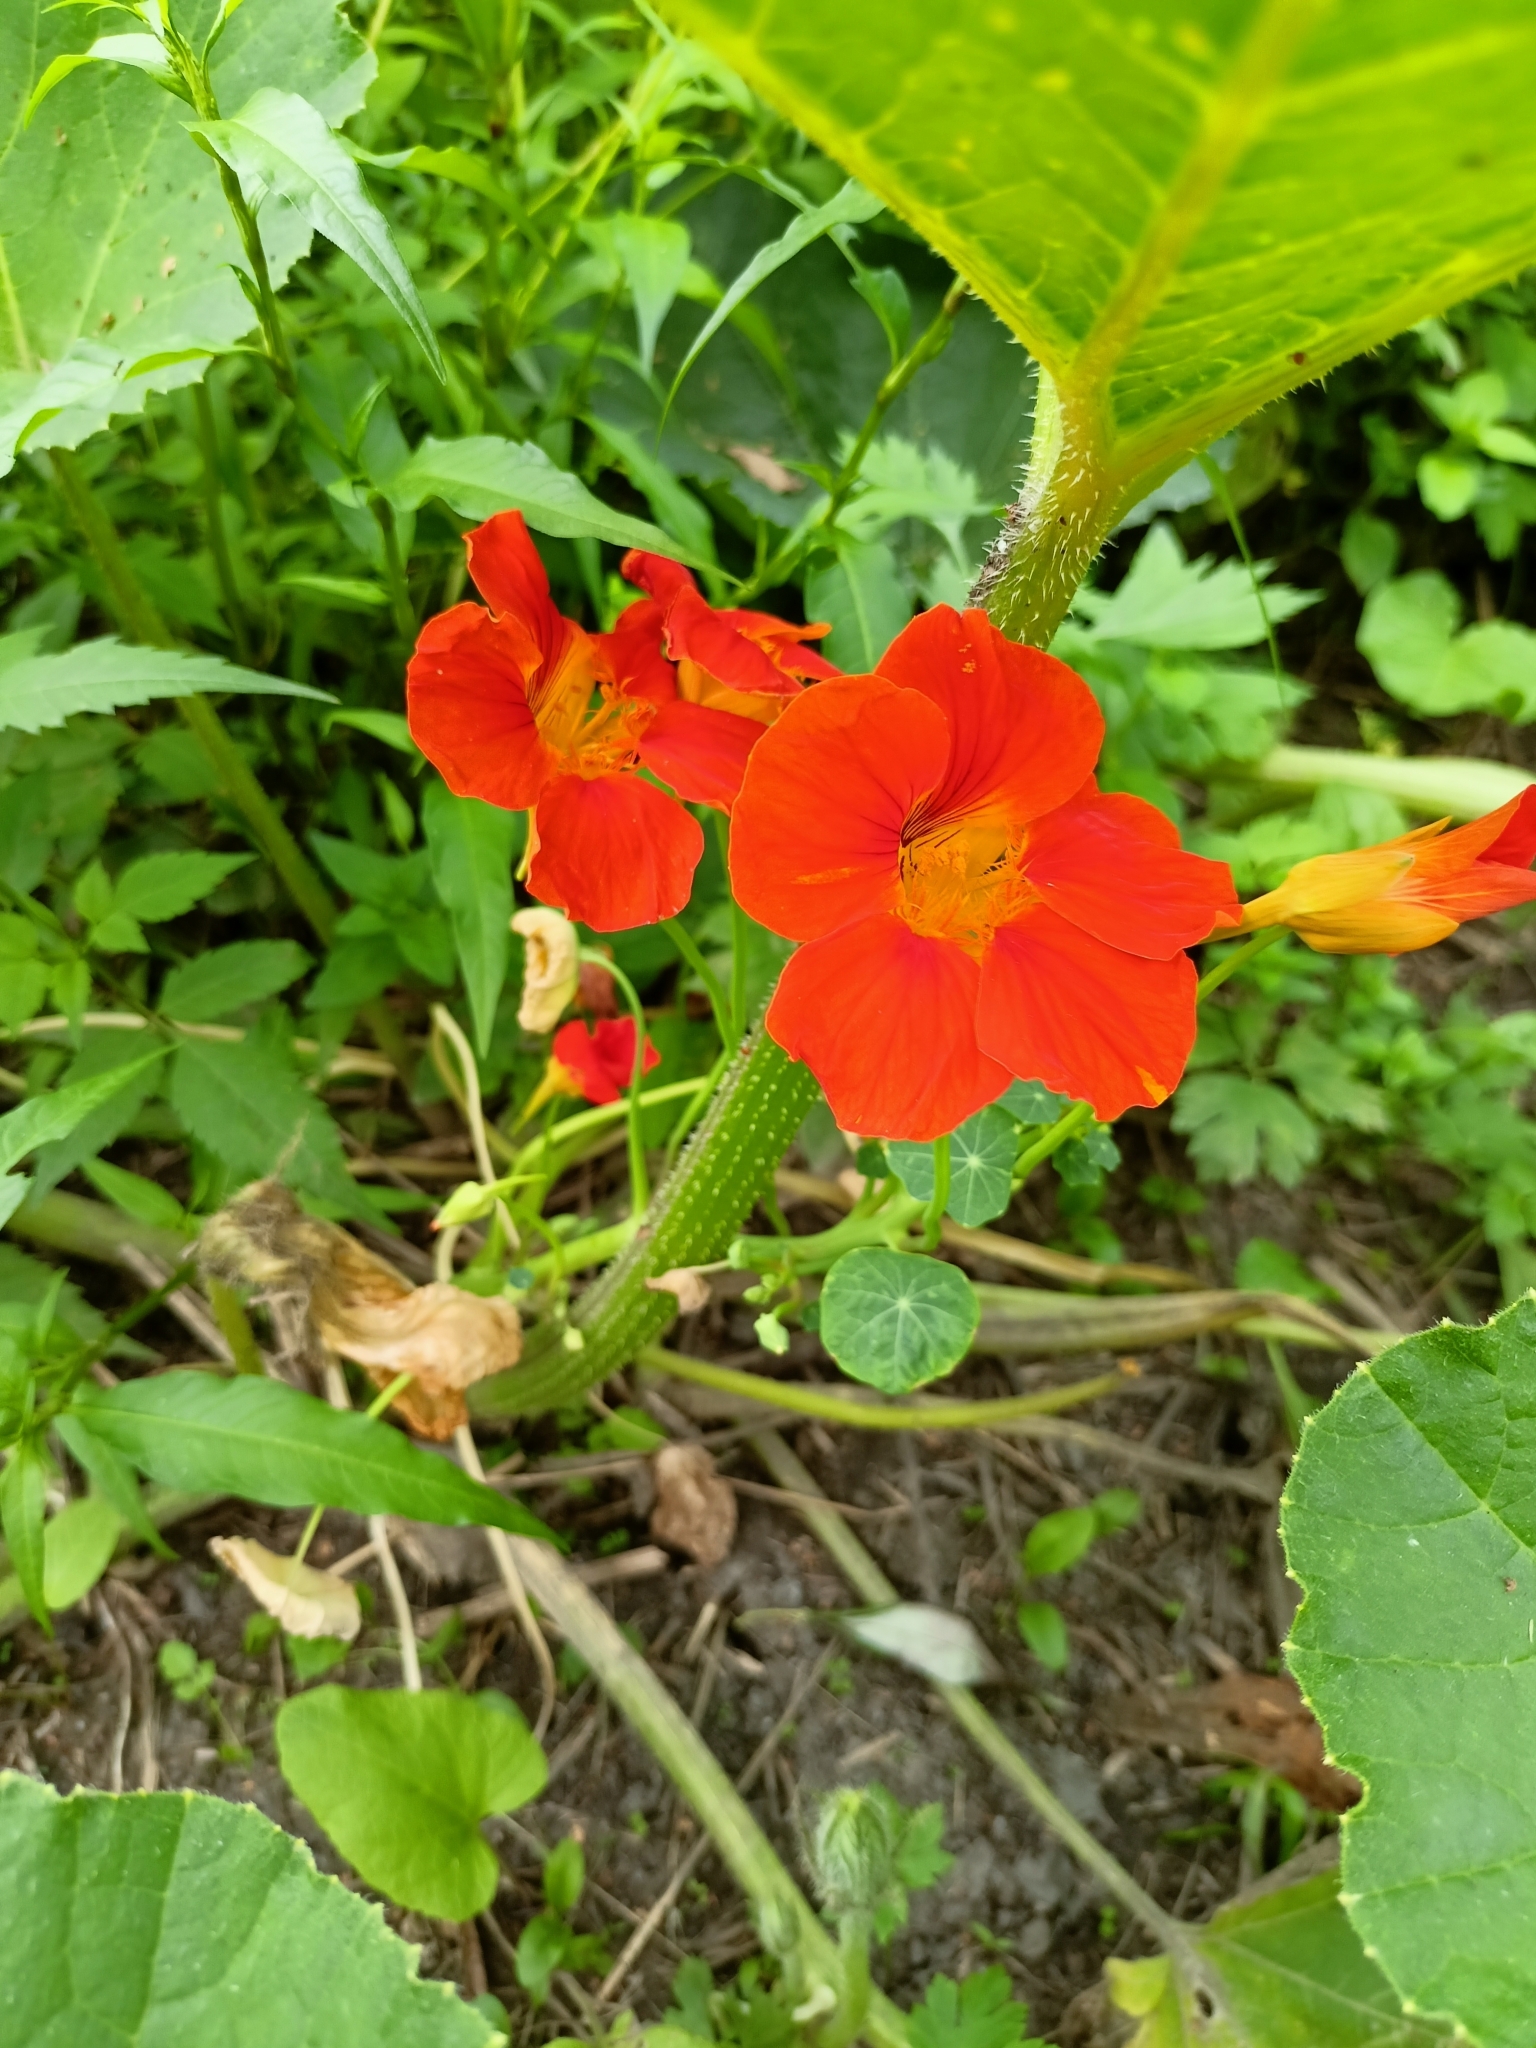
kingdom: Plantae
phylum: Tracheophyta
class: Magnoliopsida
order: Brassicales
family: Tropaeolaceae
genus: Tropaeolum
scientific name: Tropaeolum majus
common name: Nasturtium
